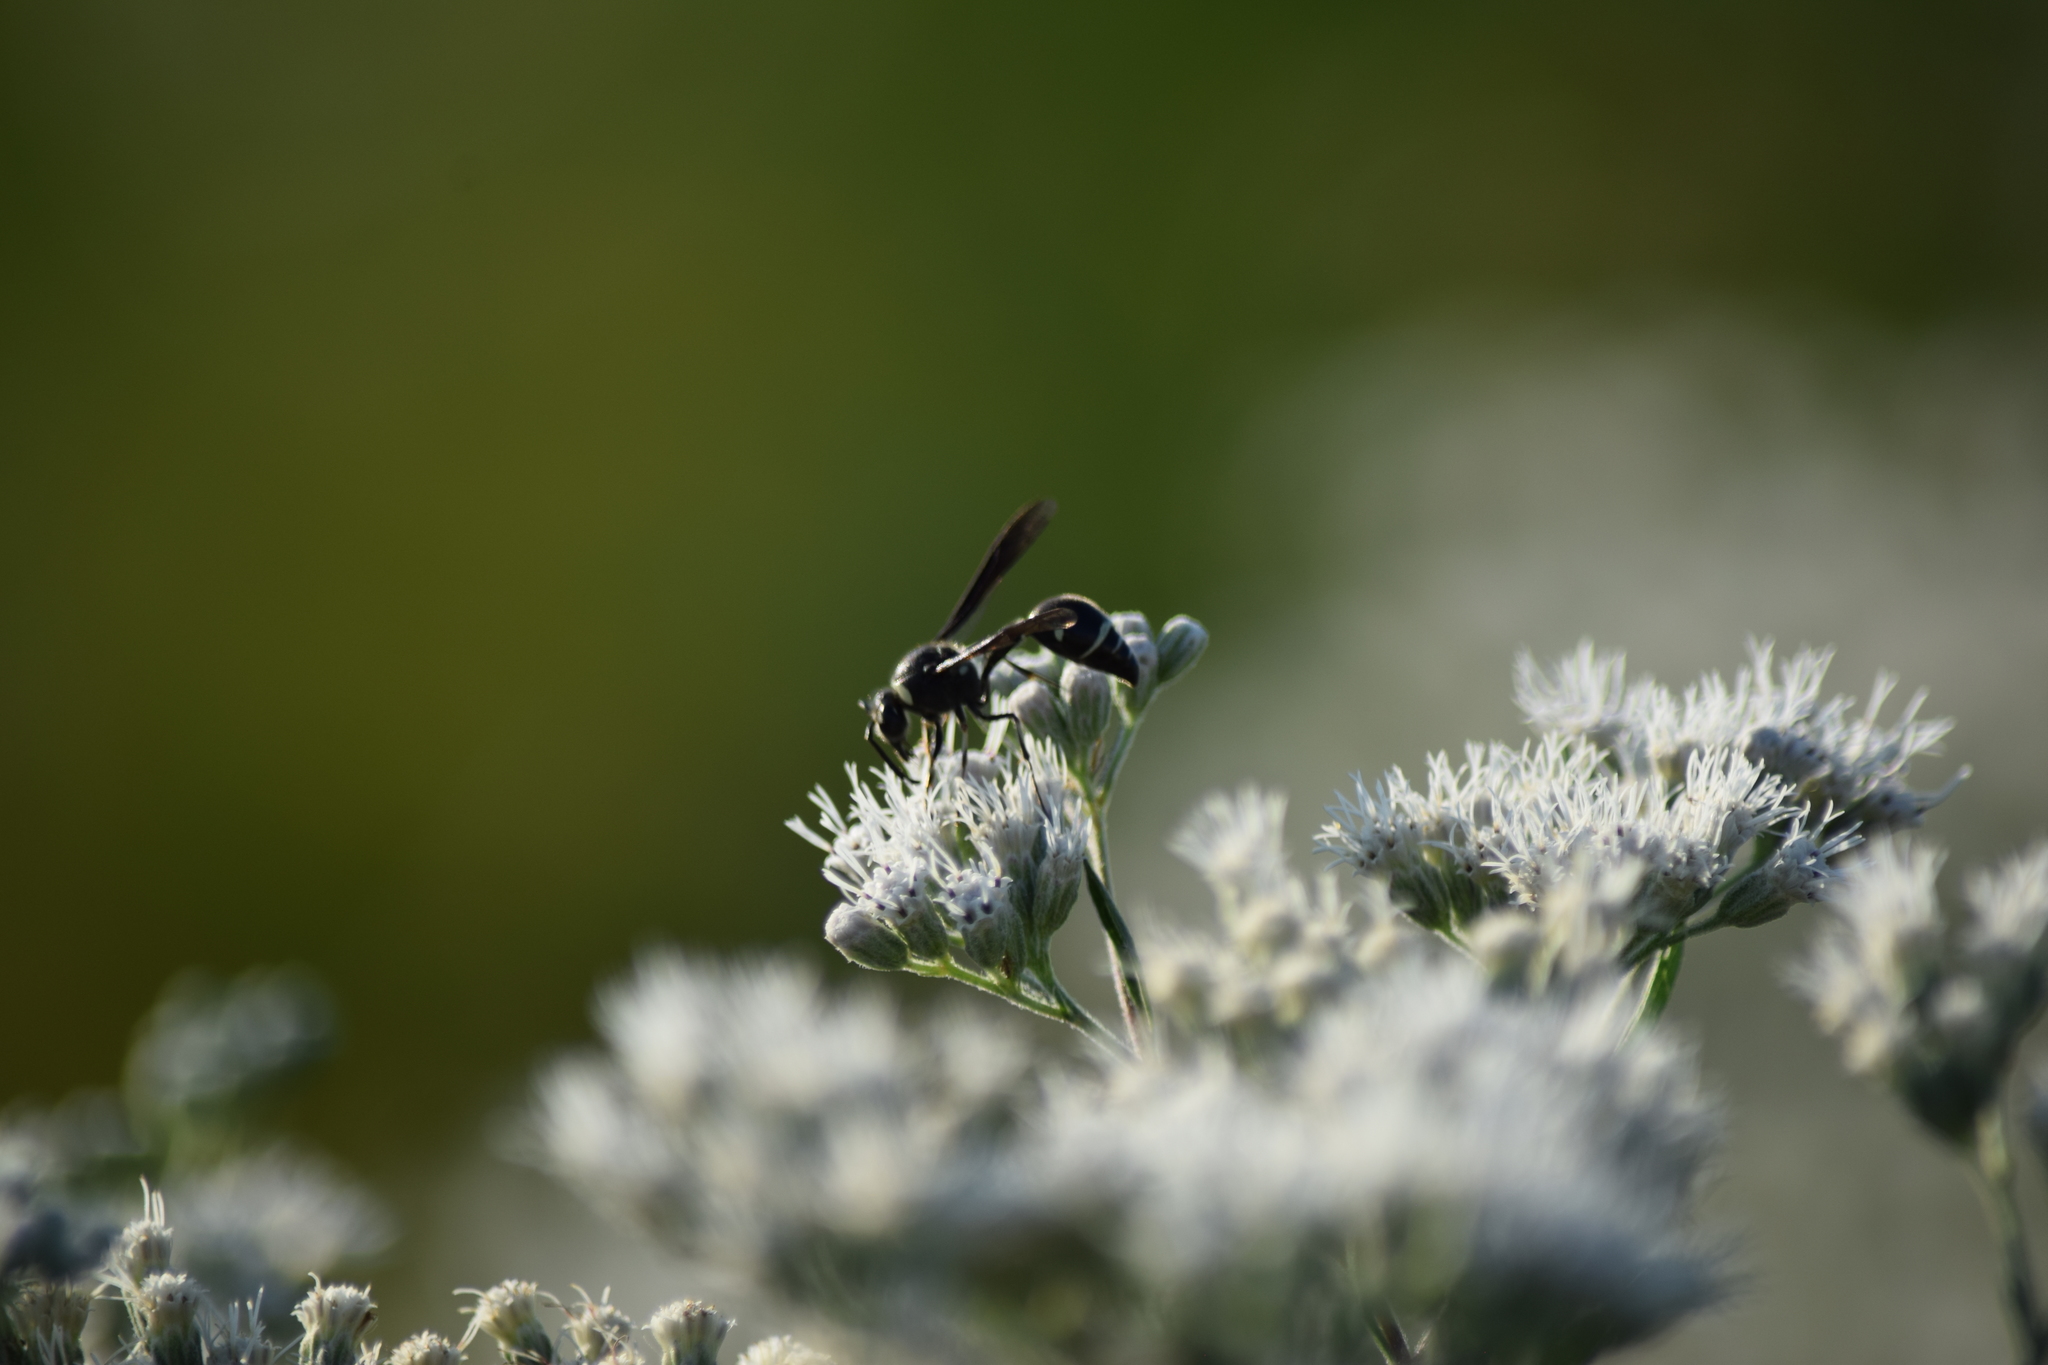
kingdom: Animalia
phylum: Arthropoda
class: Insecta
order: Hymenoptera
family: Vespidae
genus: Eumenes
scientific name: Eumenes fraternus
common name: Fraternal potter wasp
